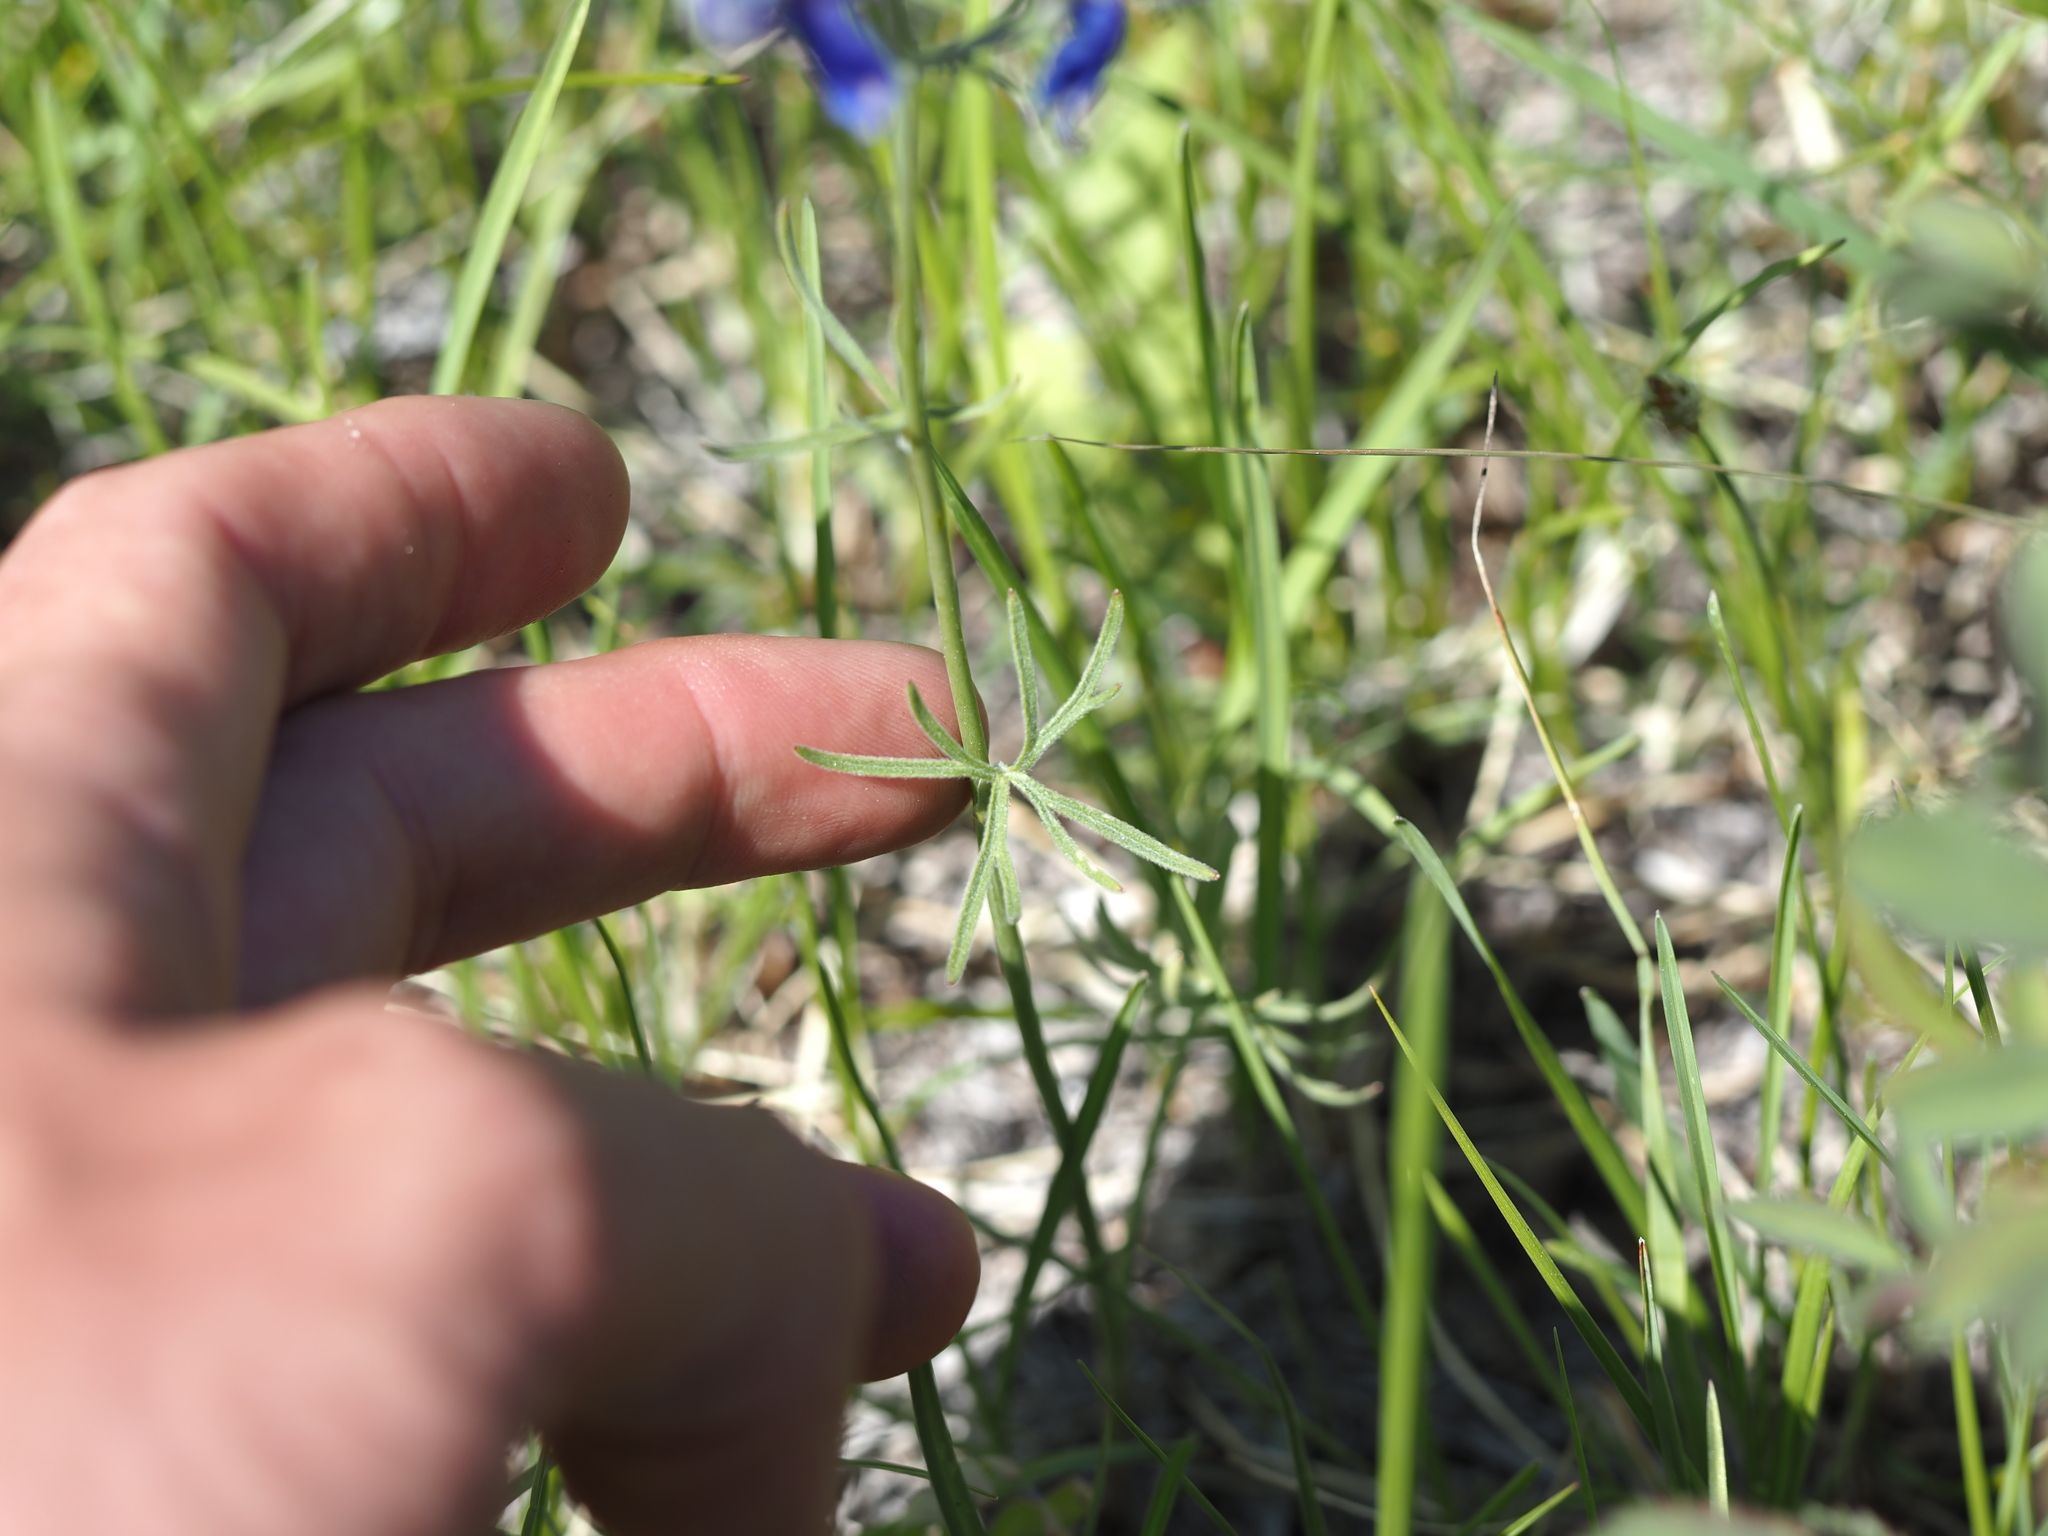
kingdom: Plantae
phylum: Tracheophyta
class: Magnoliopsida
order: Ranunculales
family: Ranunculaceae
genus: Delphinium
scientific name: Delphinium nuttallianum
